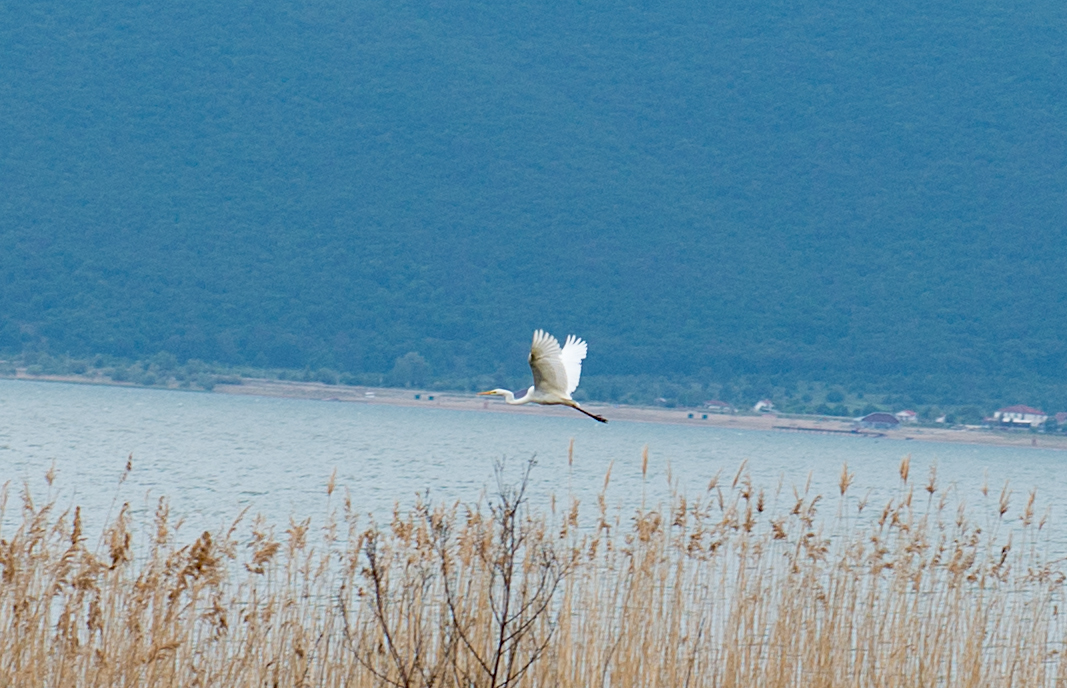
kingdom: Animalia
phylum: Chordata
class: Aves
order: Pelecaniformes
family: Ardeidae
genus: Ardea
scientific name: Ardea alba
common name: Great egret
